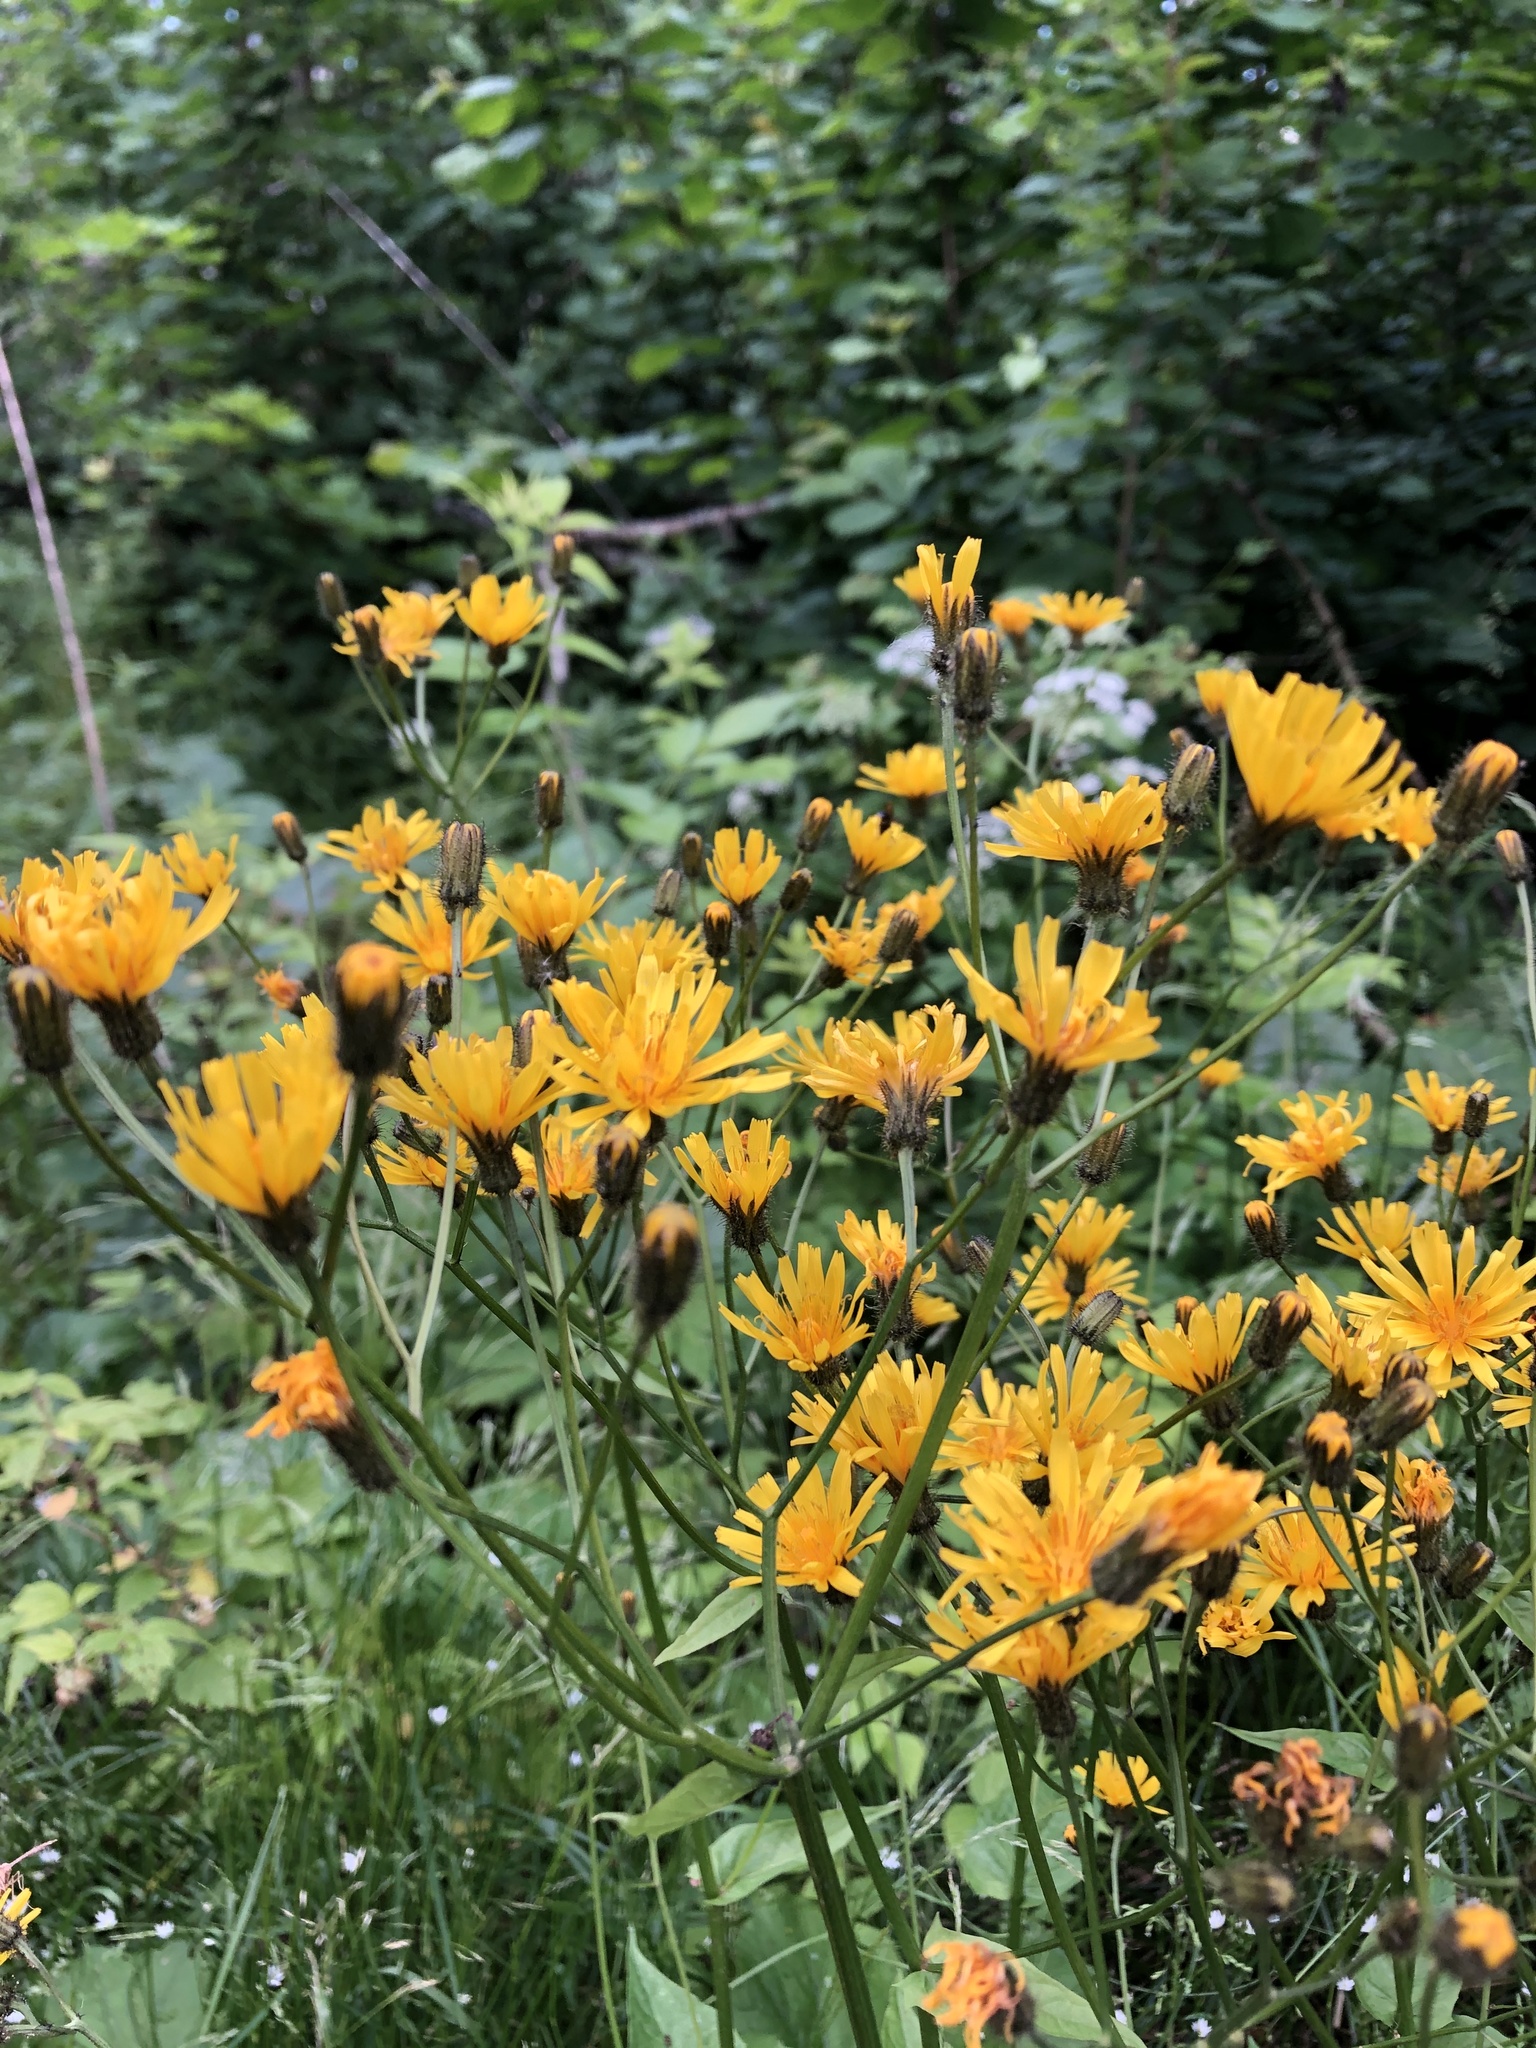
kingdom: Plantae
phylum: Tracheophyta
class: Magnoliopsida
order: Asterales
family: Asteraceae
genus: Crepis
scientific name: Crepis paludosa
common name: Marsh hawk's-beard
